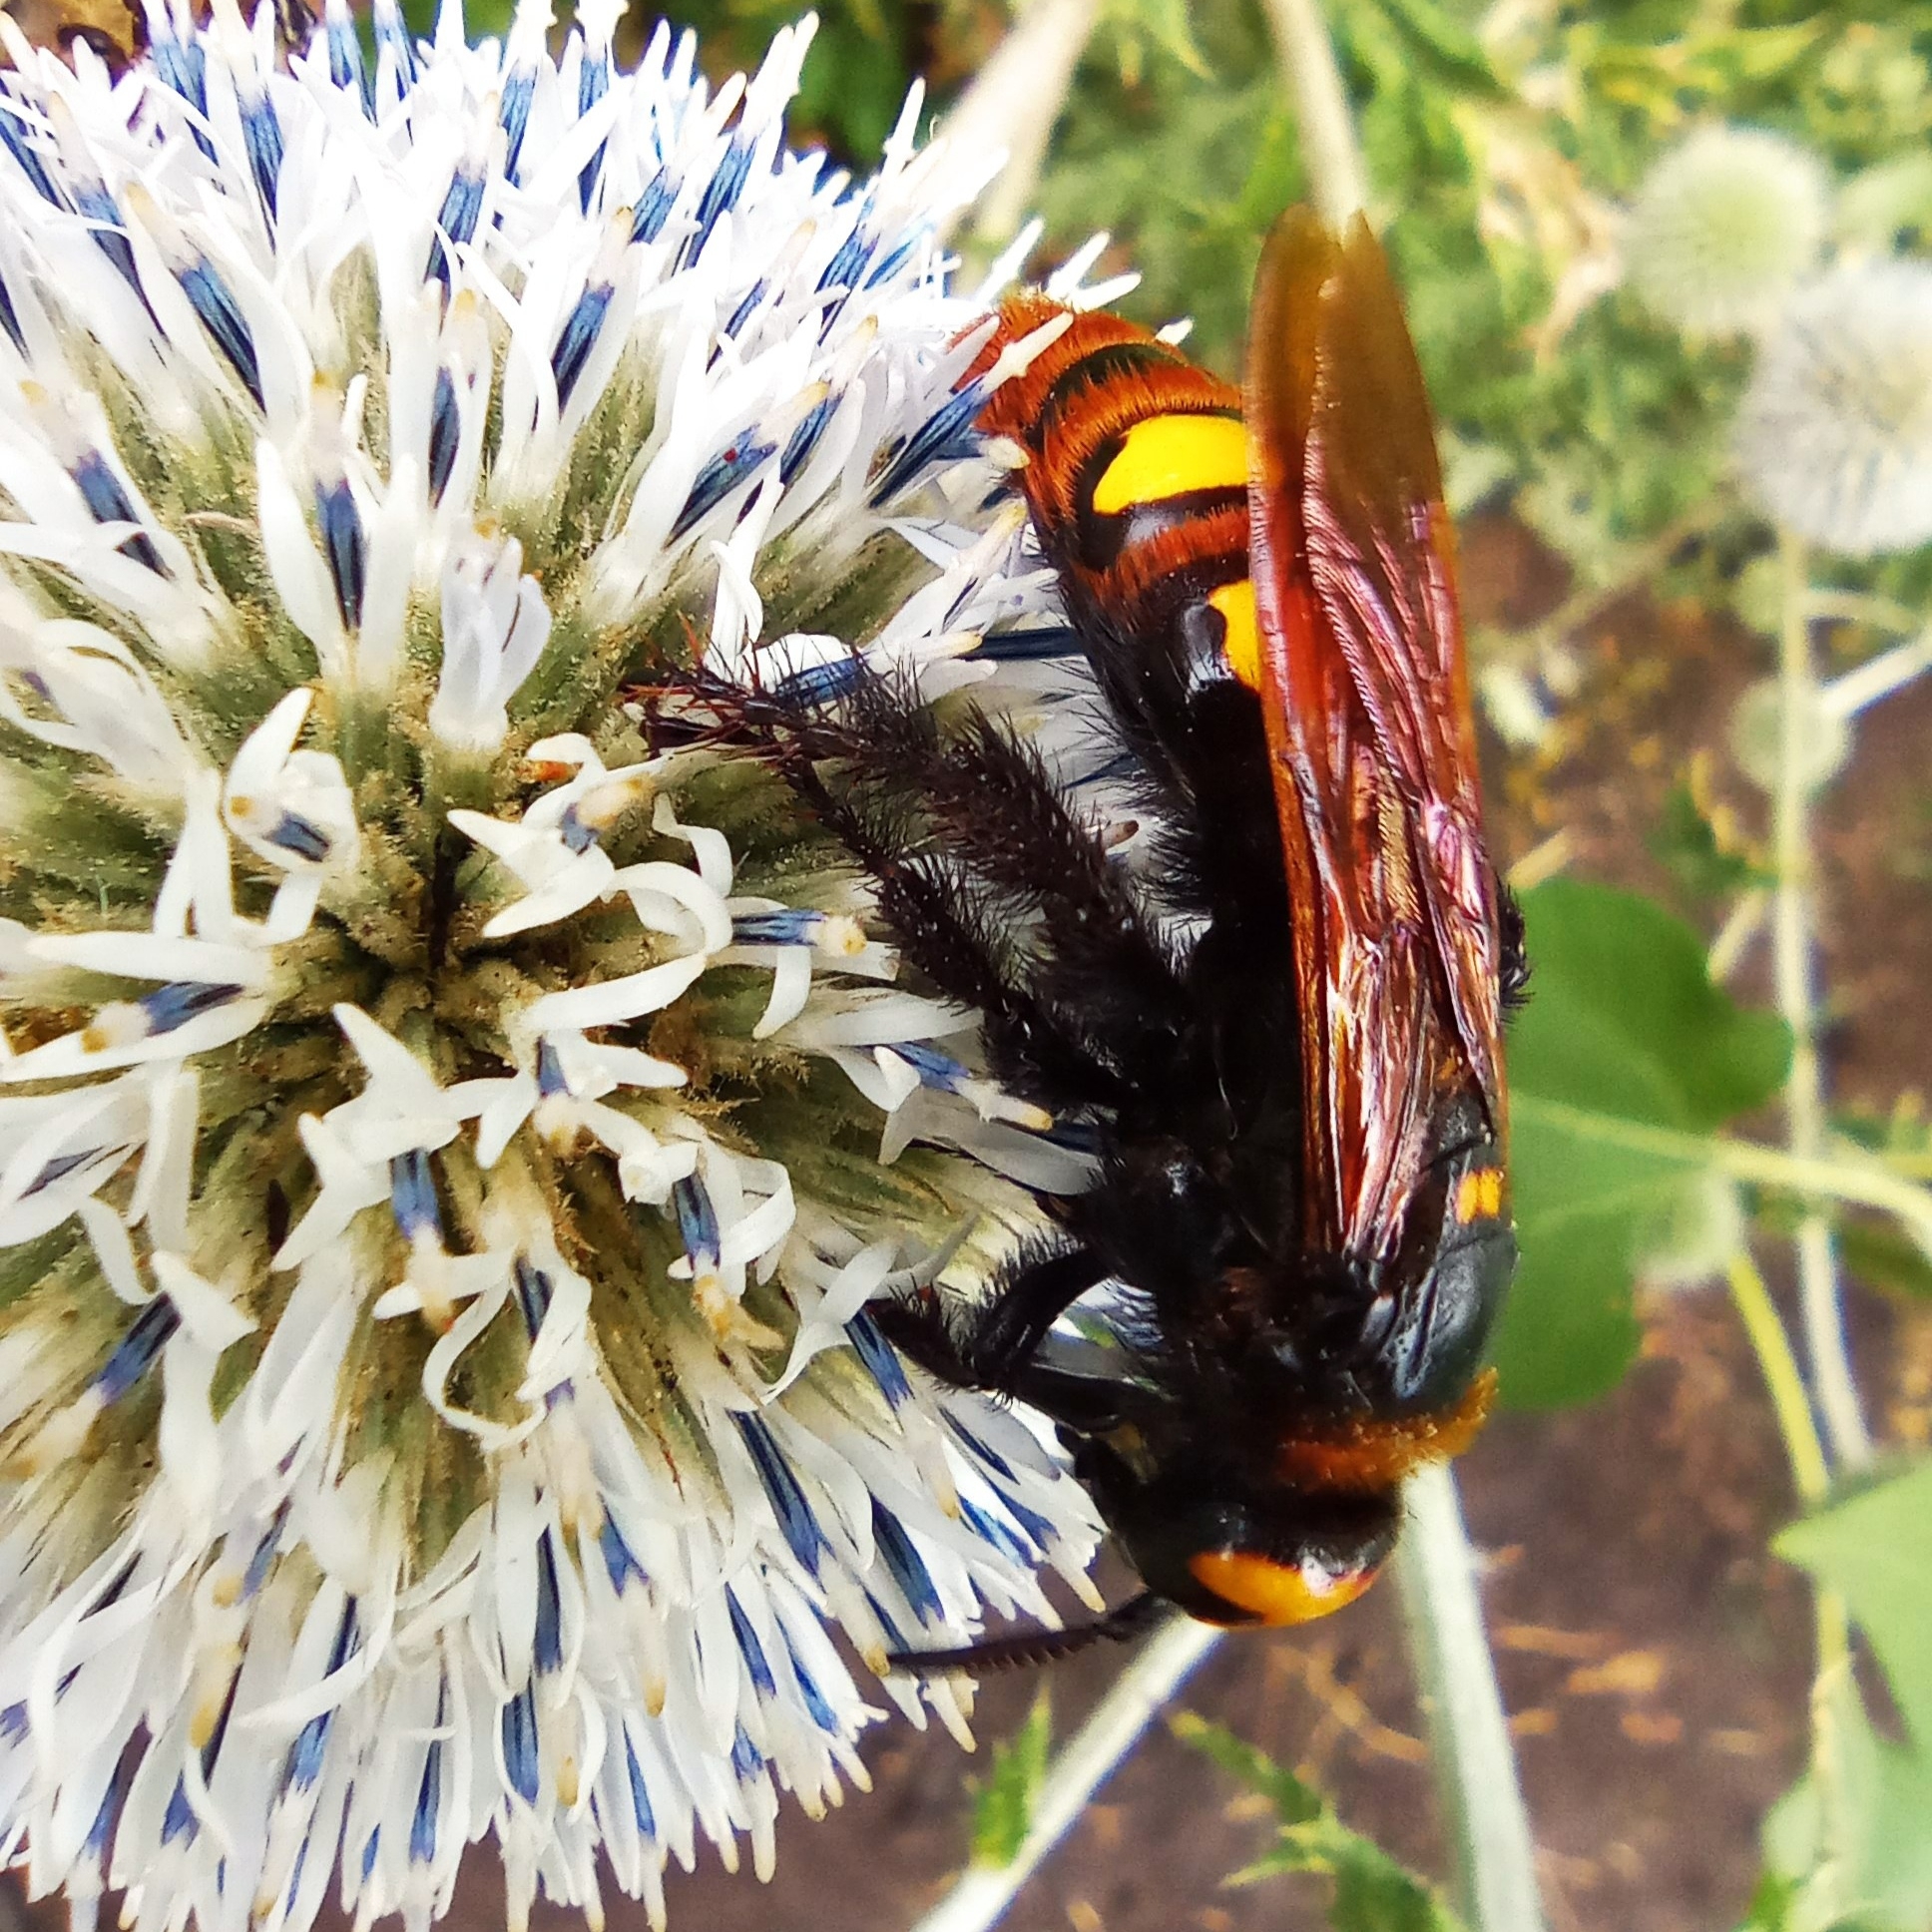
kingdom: Animalia
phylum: Arthropoda
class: Insecta
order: Hymenoptera
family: Scoliidae
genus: Megascolia
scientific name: Megascolia maculata
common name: Mammoth wasp
